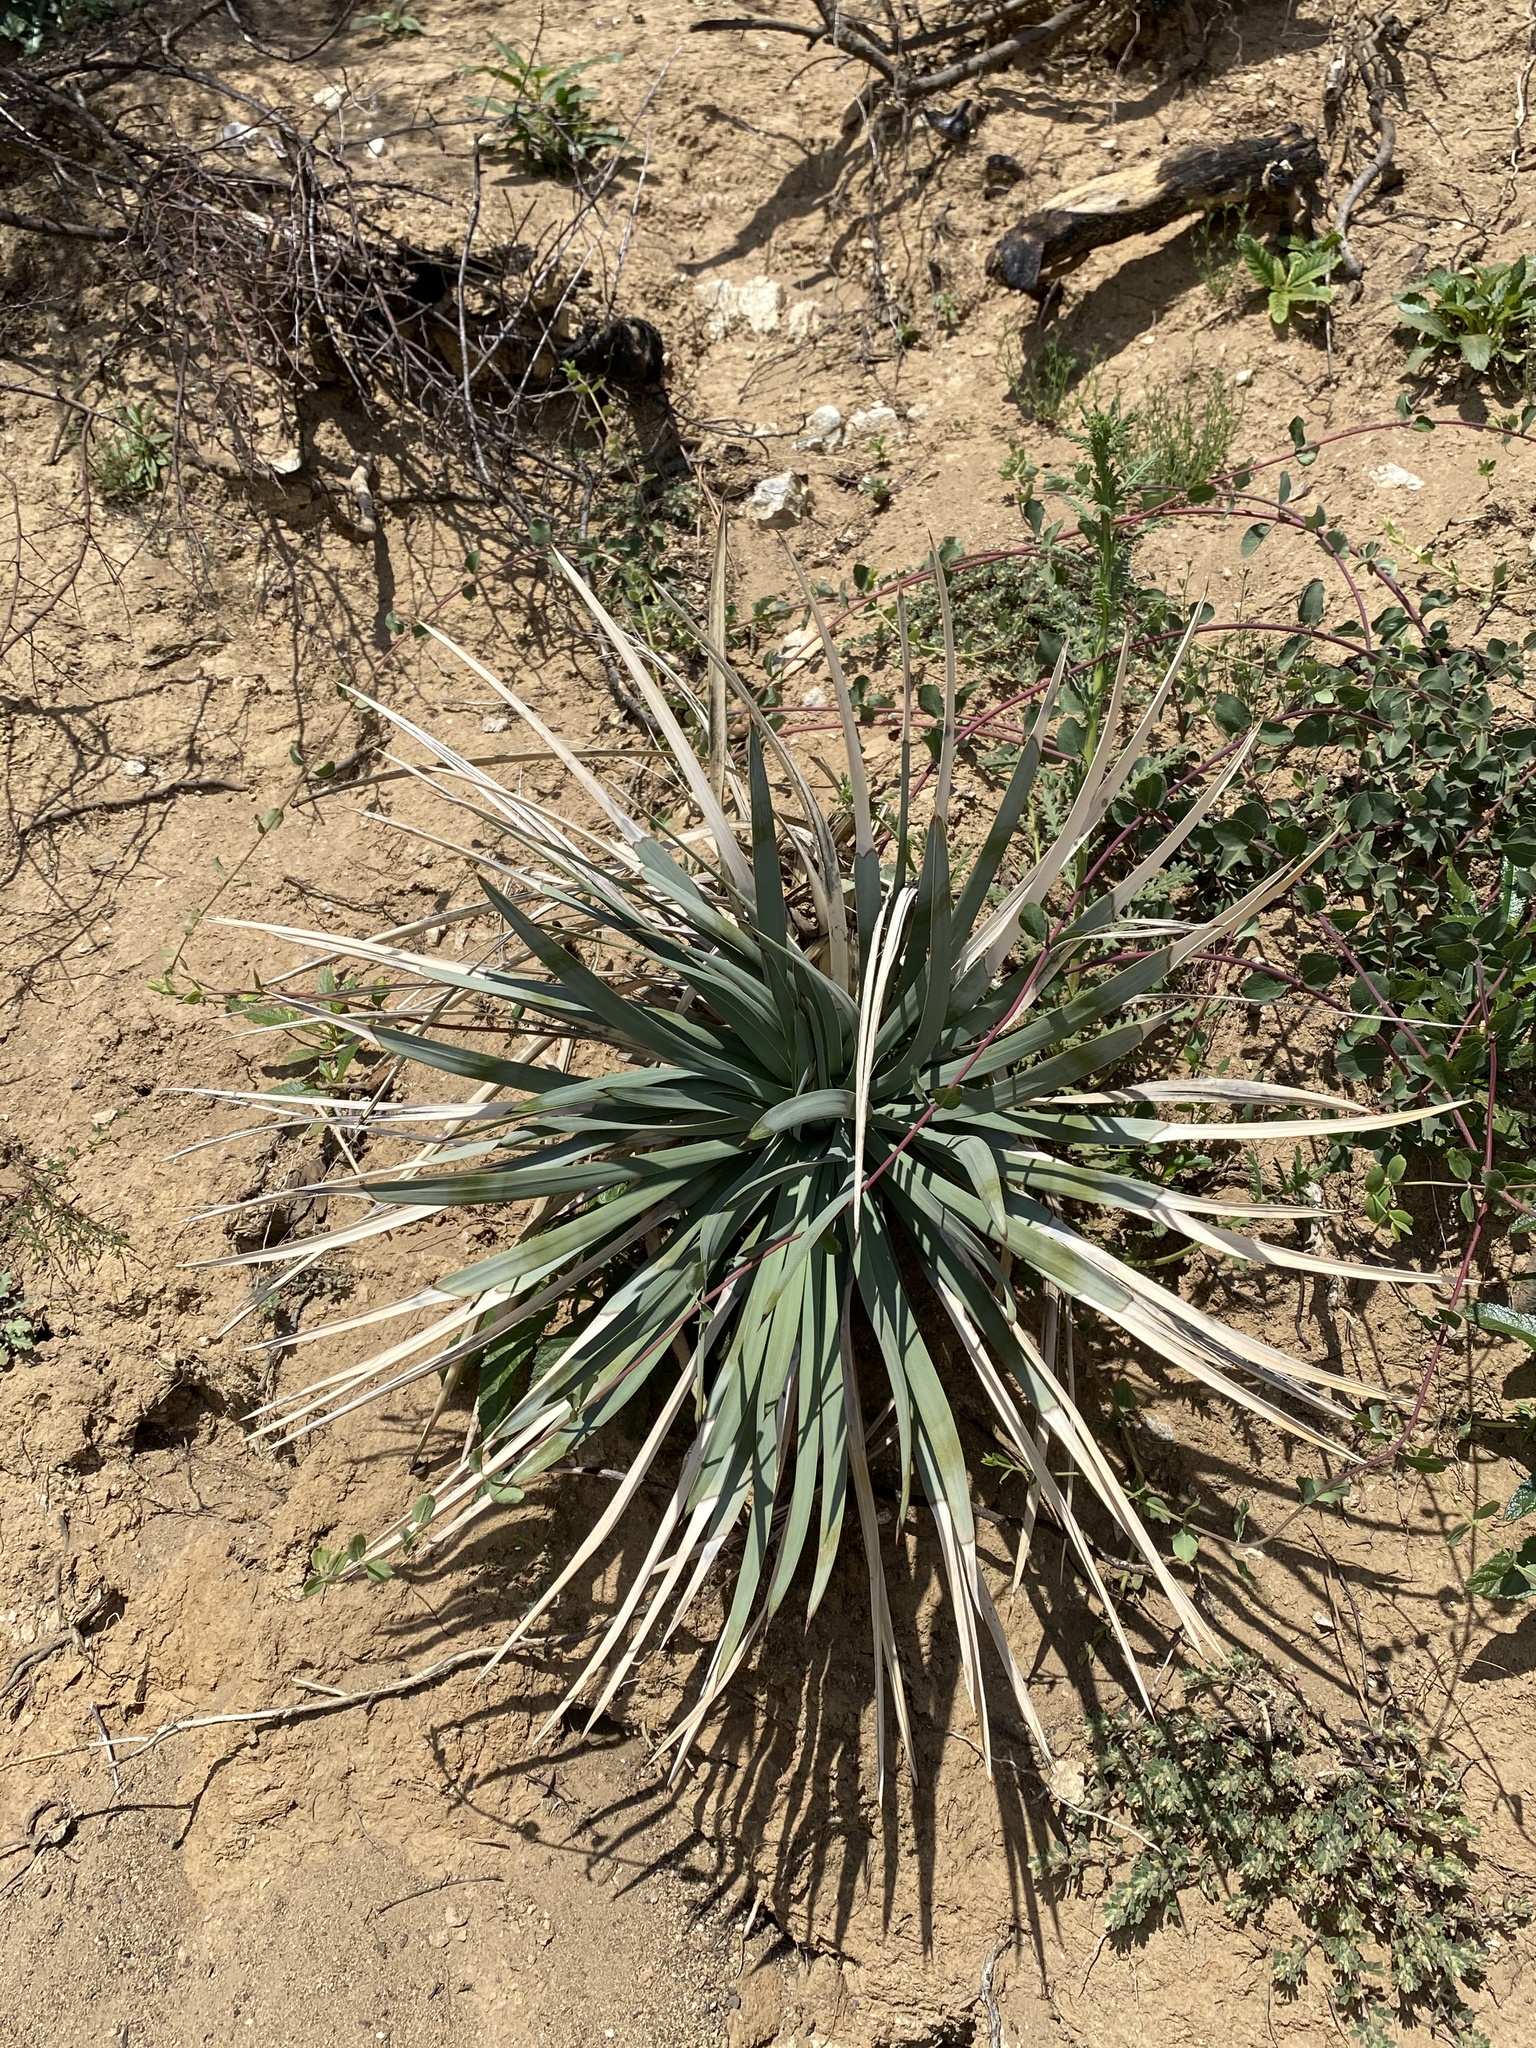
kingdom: Plantae
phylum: Tracheophyta
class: Liliopsida
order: Asparagales
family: Asparagaceae
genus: Hesperoyucca
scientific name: Hesperoyucca whipplei
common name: Our lord's-candle
